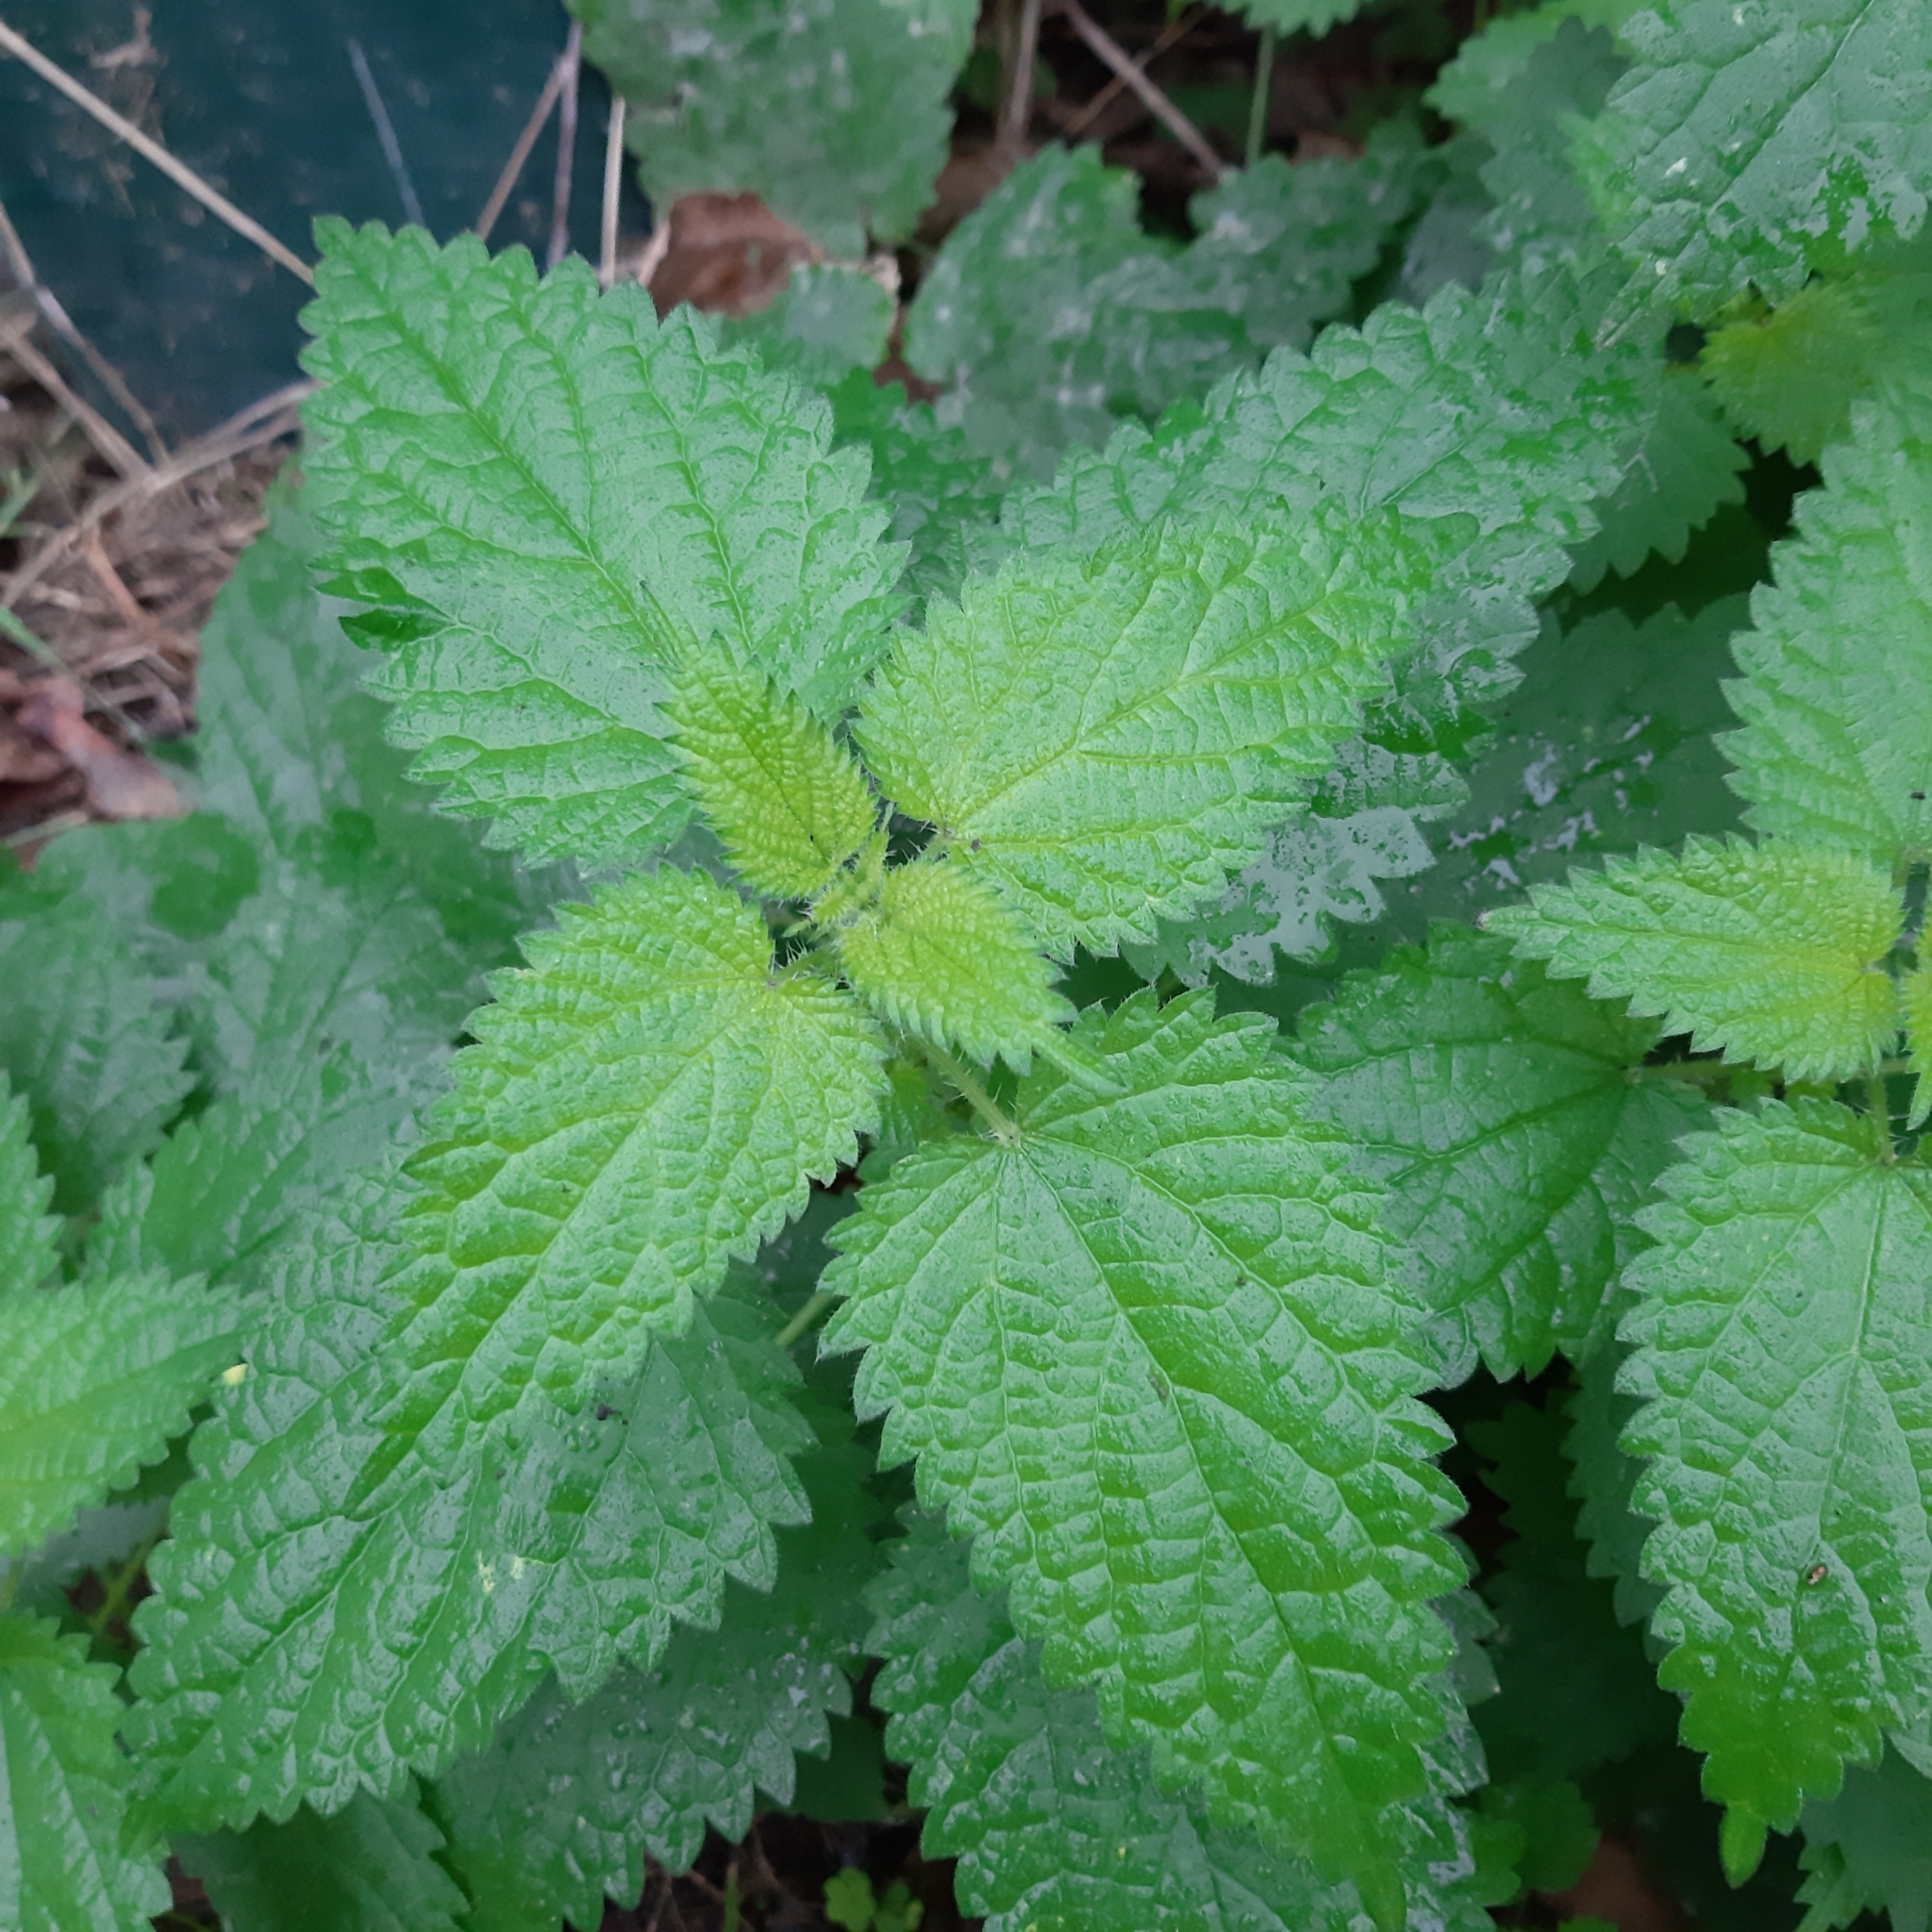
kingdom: Plantae
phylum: Tracheophyta
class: Magnoliopsida
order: Rosales
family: Urticaceae
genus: Urtica
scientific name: Urtica dioica
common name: Common nettle
